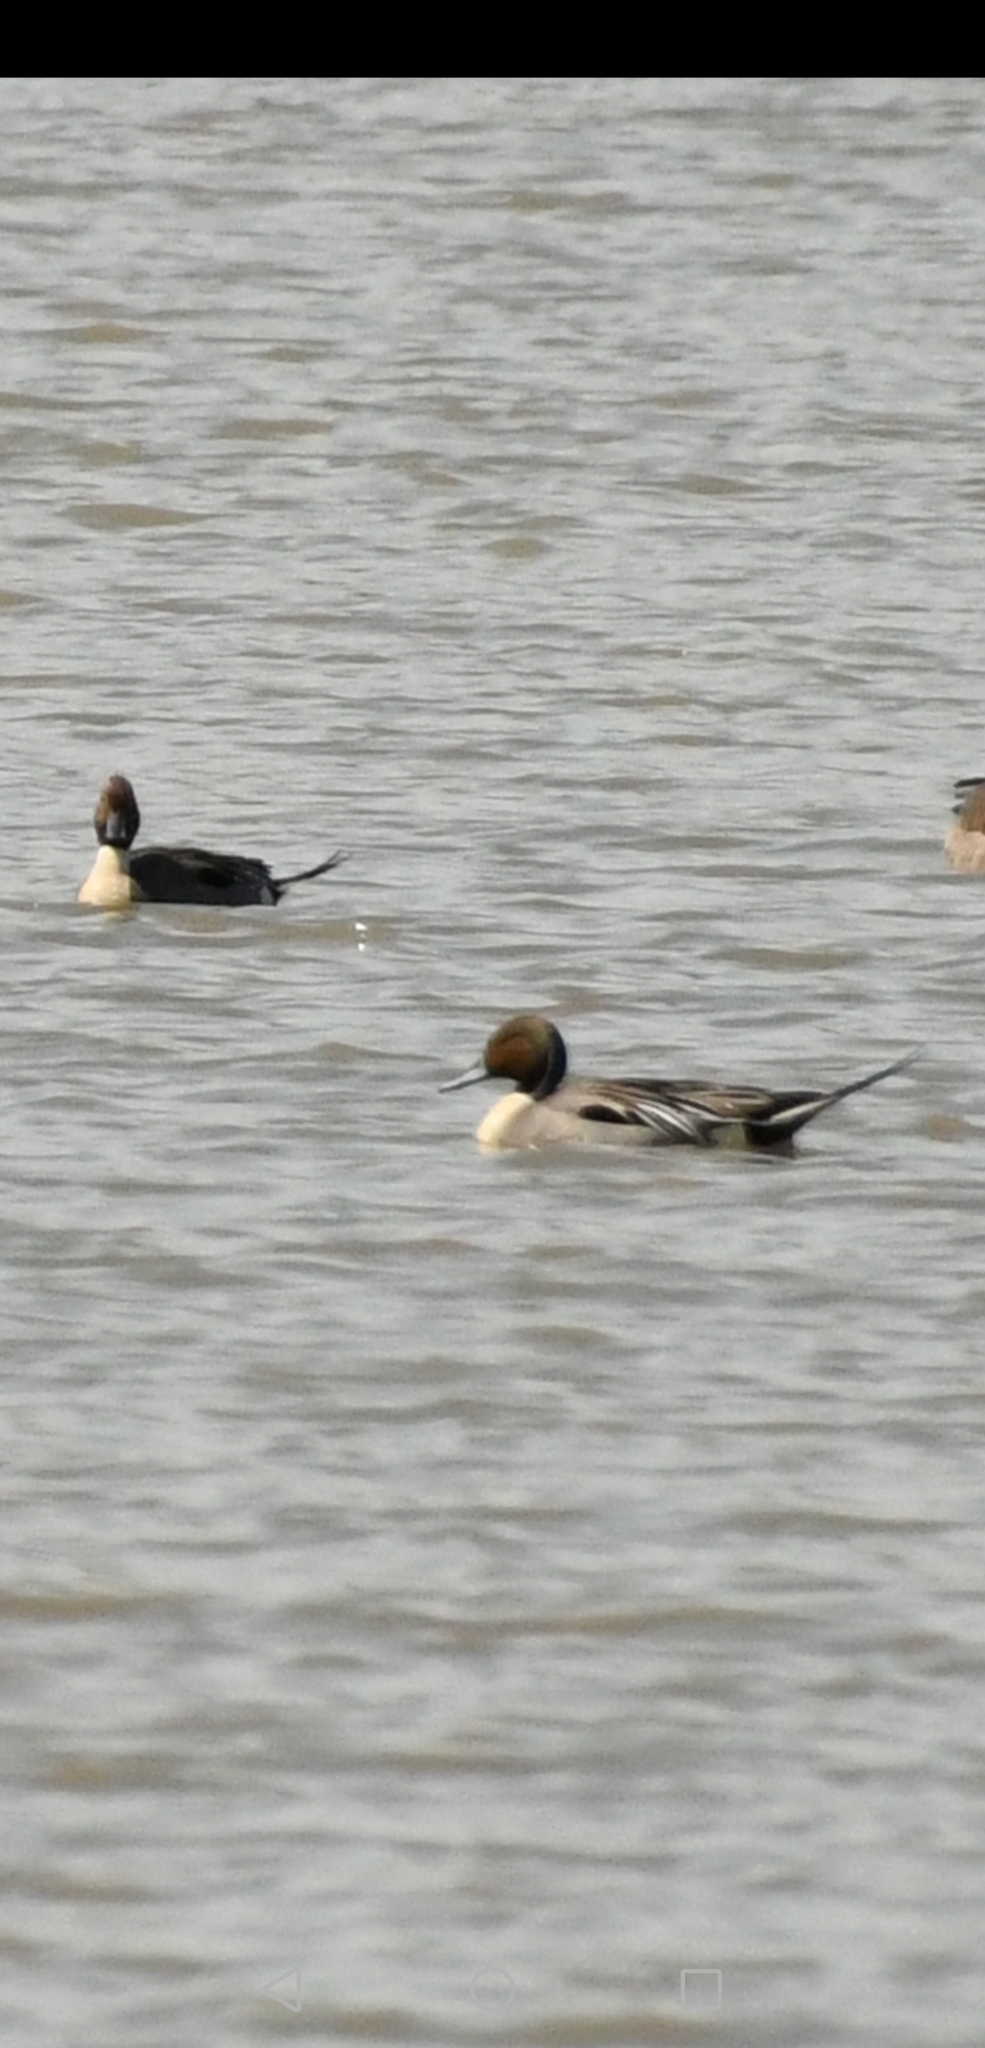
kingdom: Animalia
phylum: Chordata
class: Aves
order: Anseriformes
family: Anatidae
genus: Anas
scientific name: Anas acuta
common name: Northern pintail
